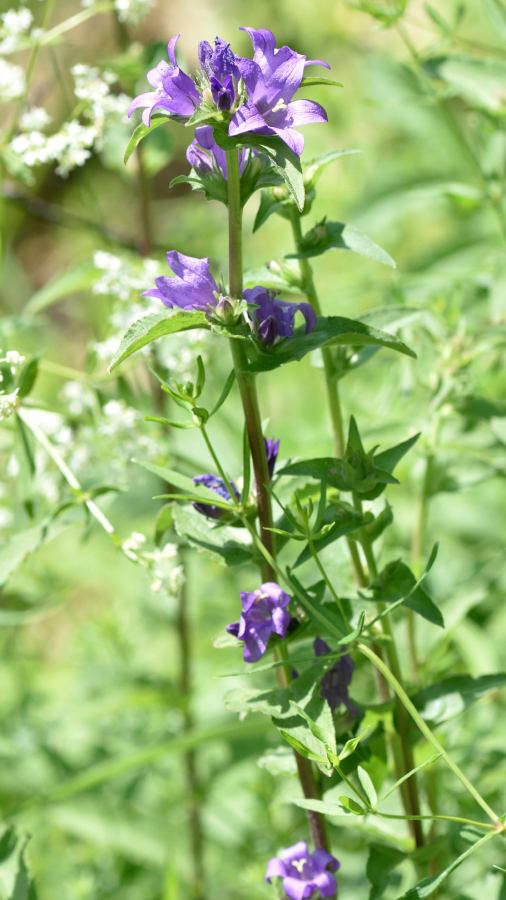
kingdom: Plantae
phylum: Tracheophyta
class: Magnoliopsida
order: Asterales
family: Campanulaceae
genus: Campanula
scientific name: Campanula glomerata
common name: Clustered bellflower
